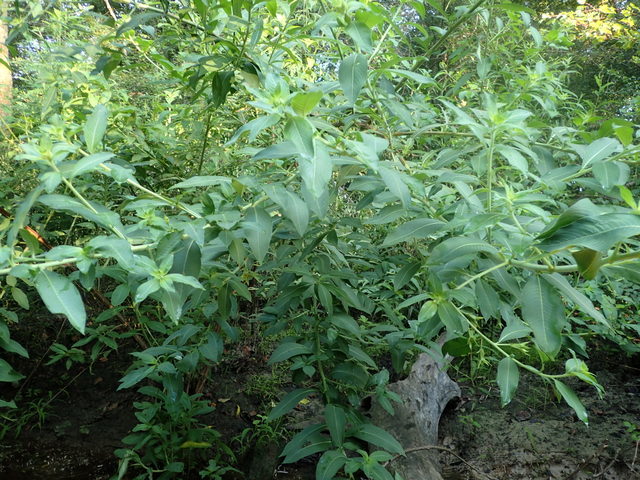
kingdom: Plantae
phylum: Tracheophyta
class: Magnoliopsida
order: Myrtales
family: Onagraceae
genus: Ludwigia
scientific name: Ludwigia peruviana
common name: Peruvian primrose-willow
